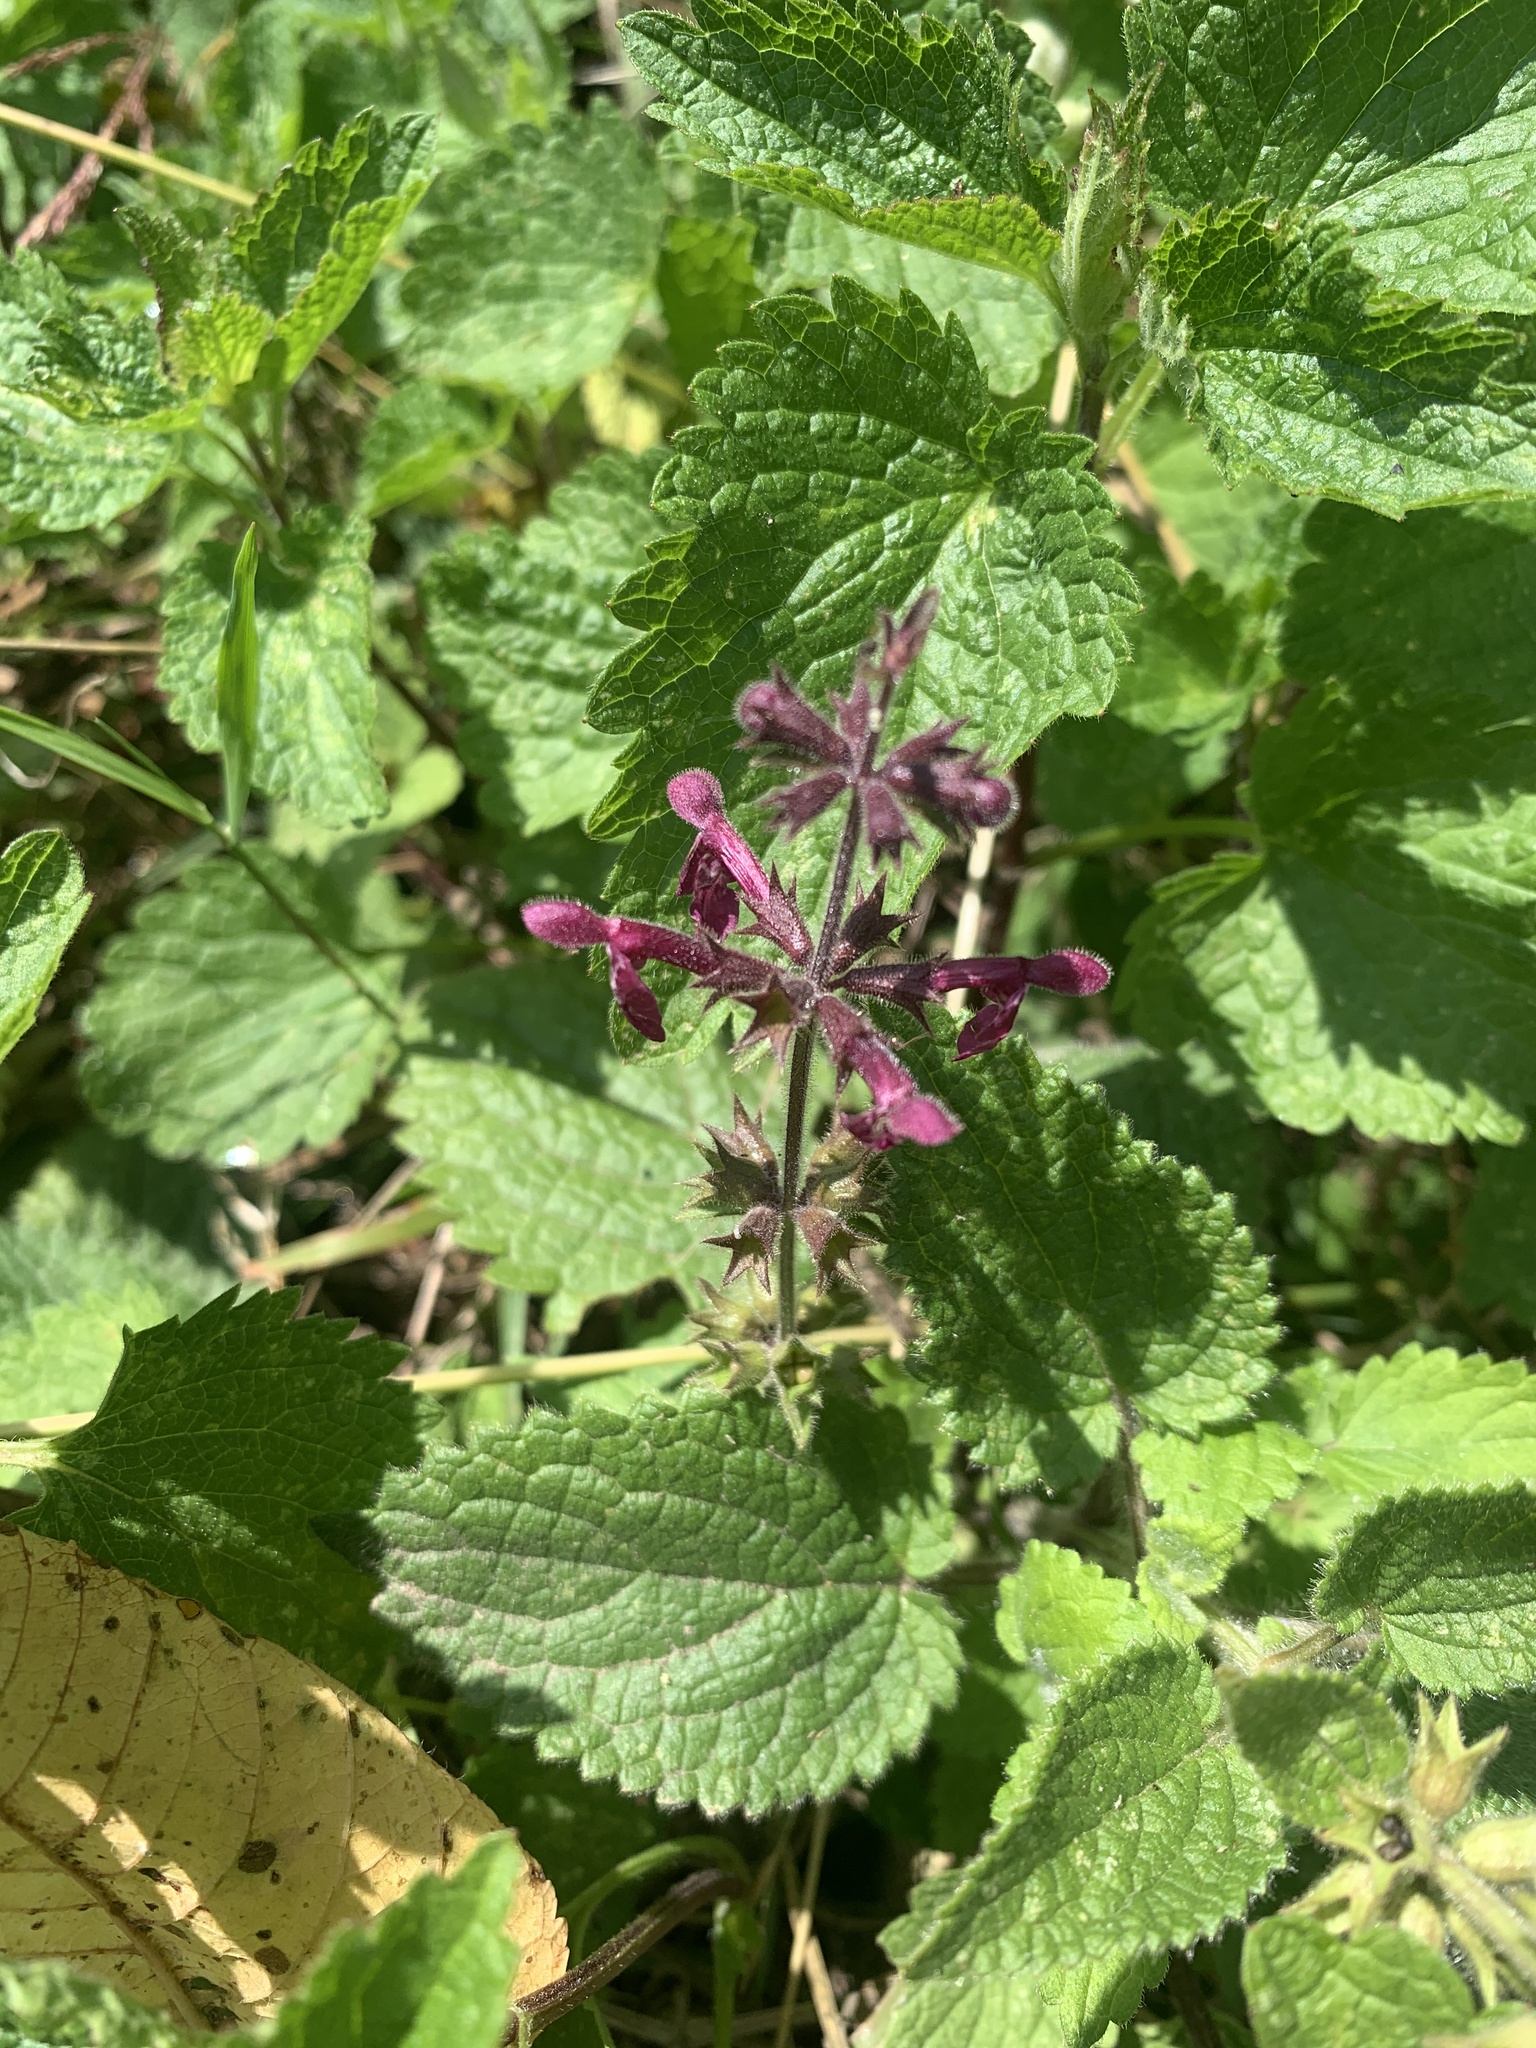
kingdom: Plantae
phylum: Tracheophyta
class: Magnoliopsida
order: Lamiales
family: Lamiaceae
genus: Stachys
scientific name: Stachys sylvatica
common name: Hedge woundwort
